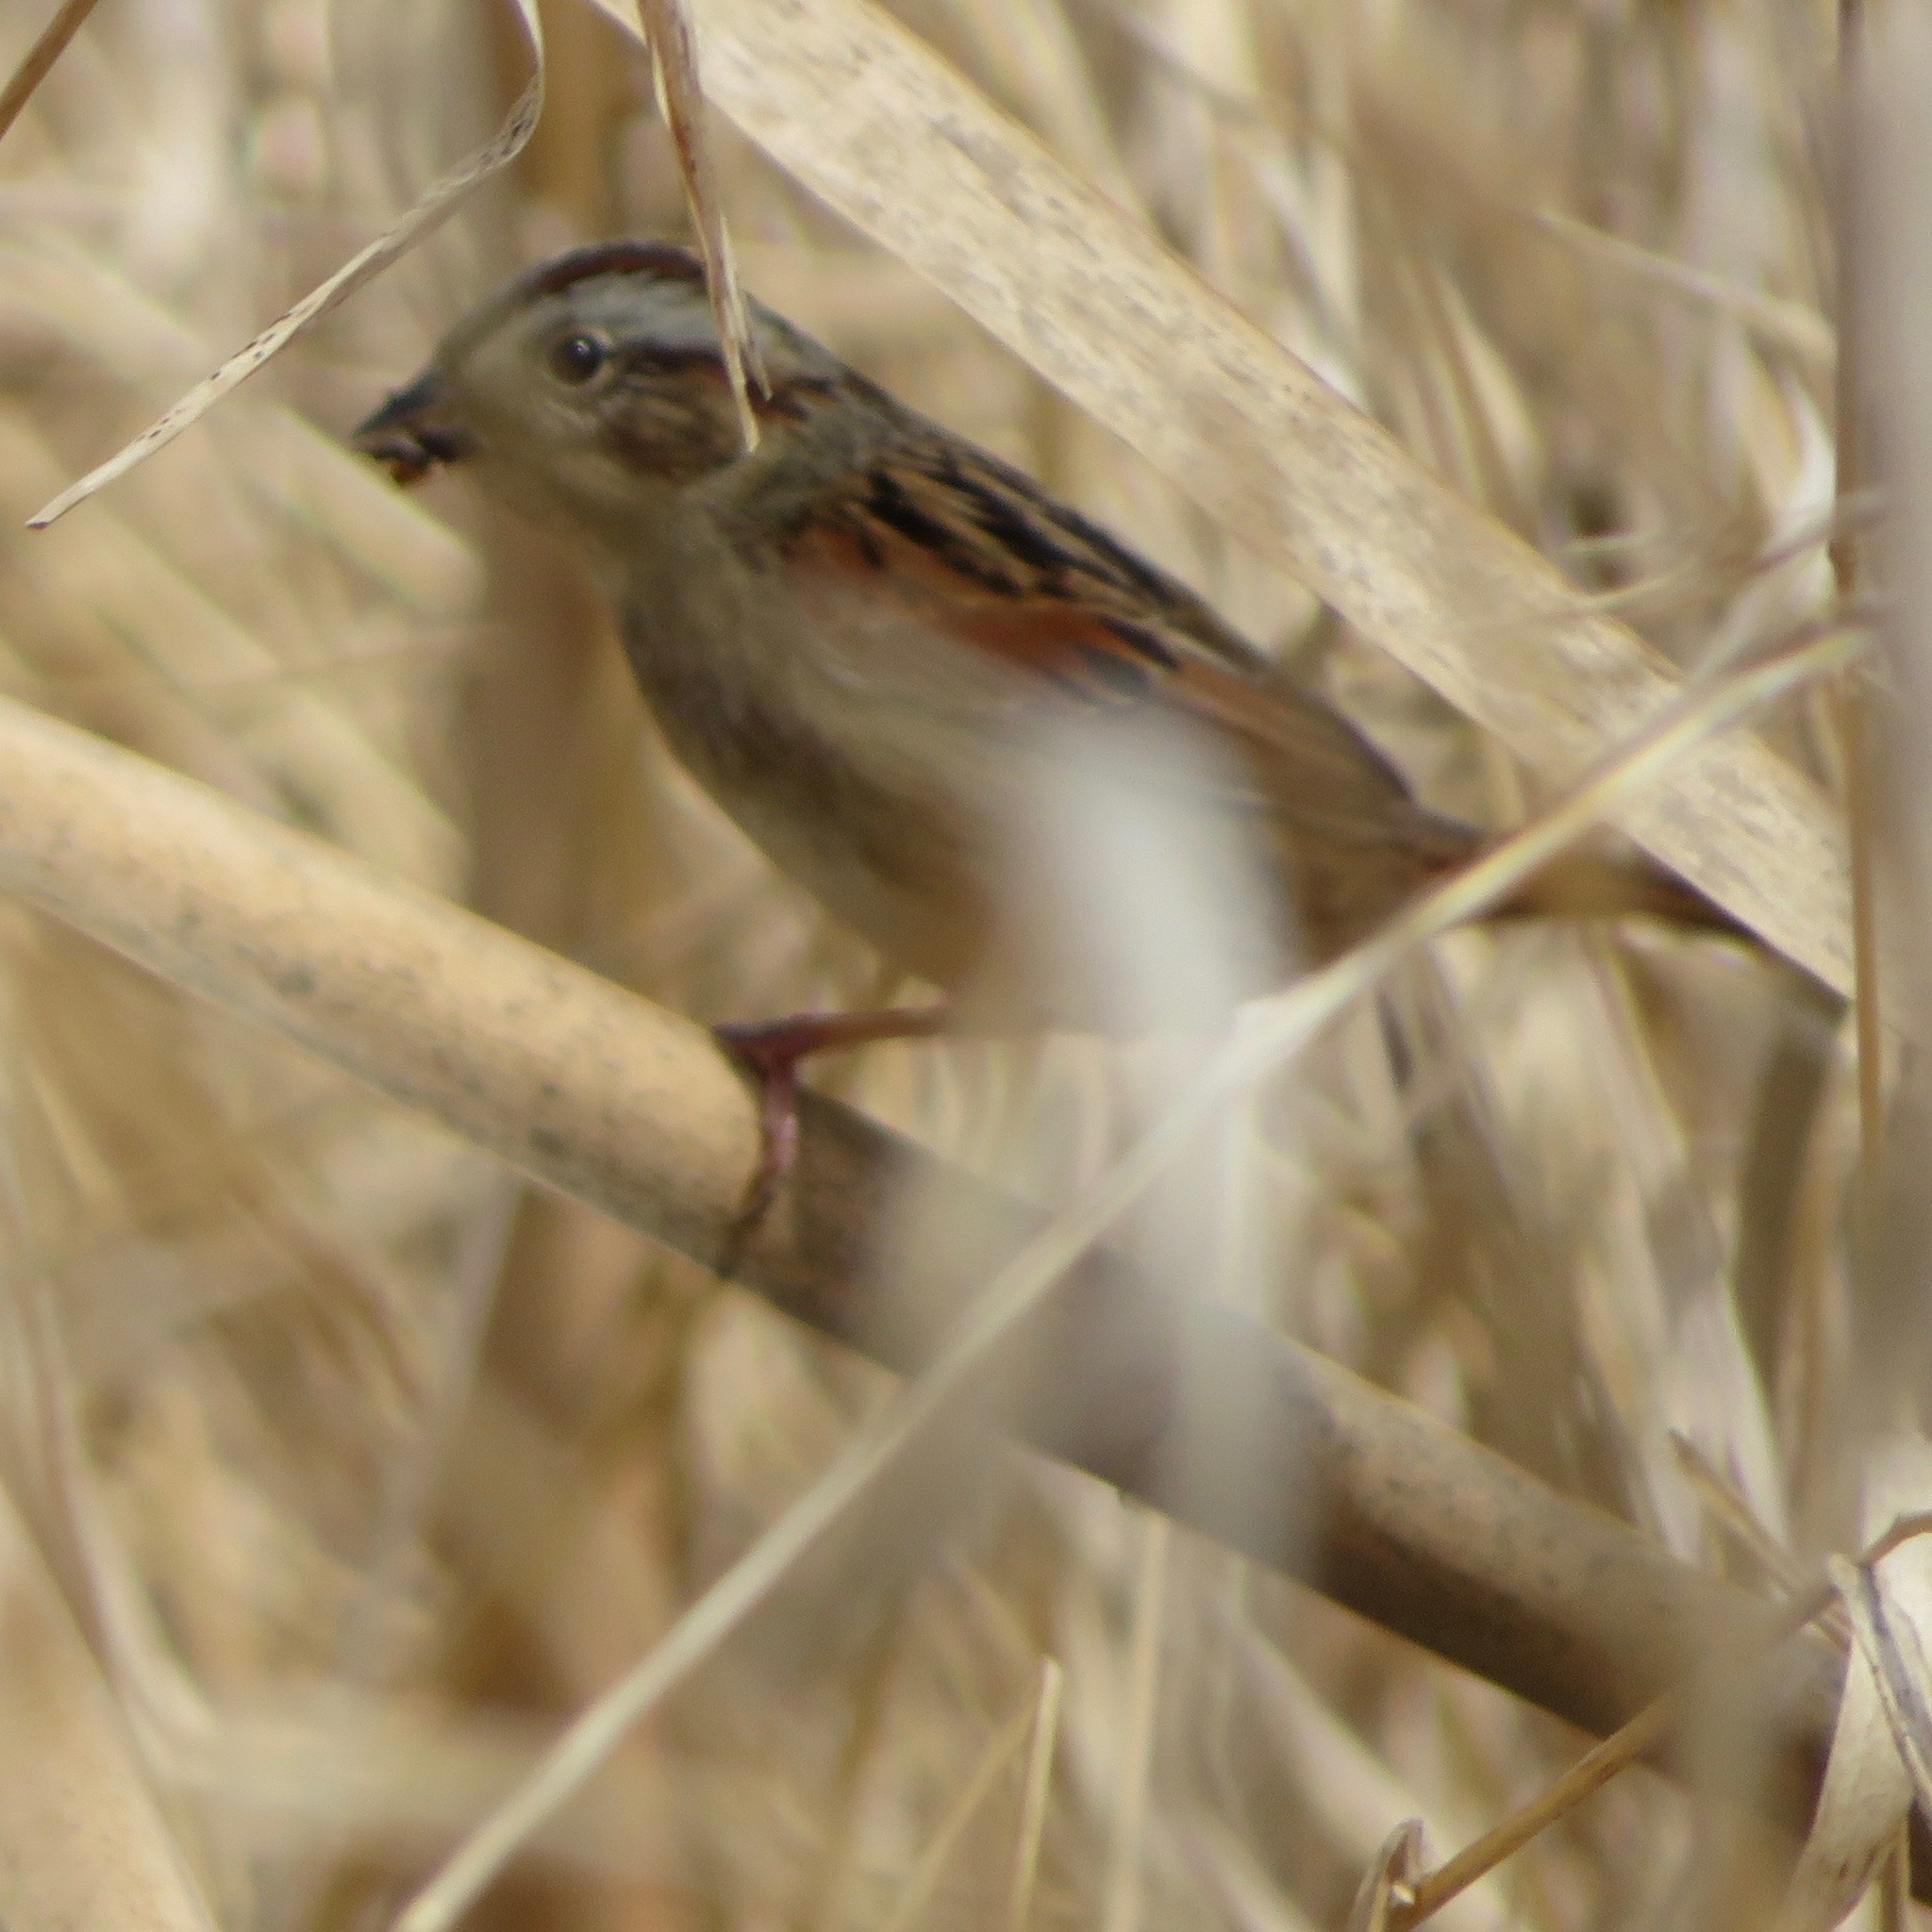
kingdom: Animalia
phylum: Chordata
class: Aves
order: Passeriformes
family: Passerellidae
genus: Melospiza
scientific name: Melospiza georgiana
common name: Swamp sparrow
